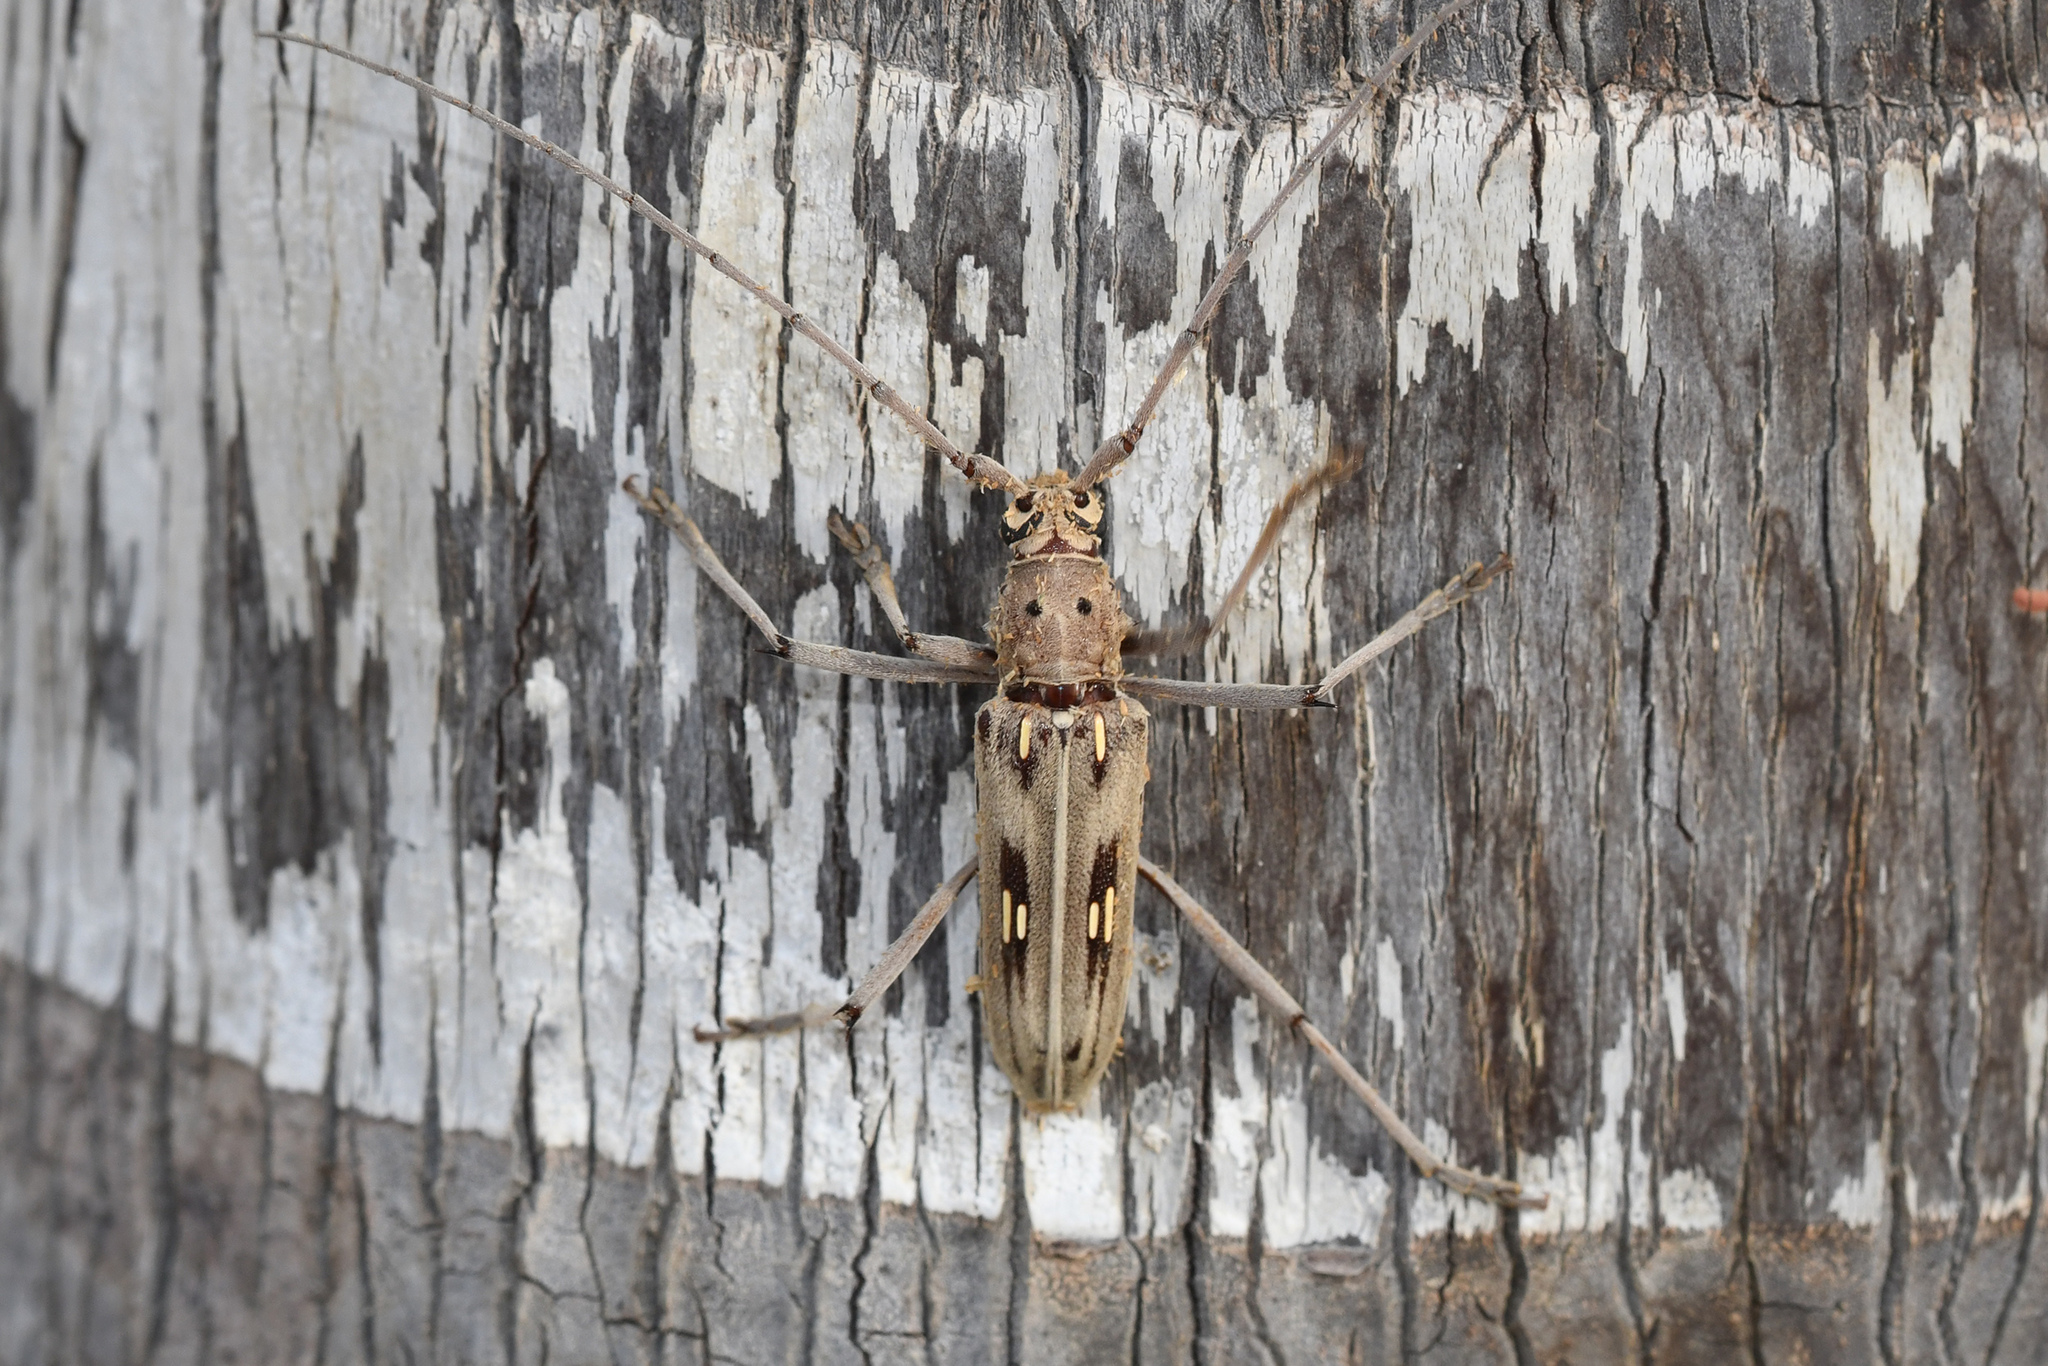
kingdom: Animalia
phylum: Arthropoda
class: Insecta
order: Coleoptera
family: Cerambycidae
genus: Eburia
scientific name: Eburia stigma
